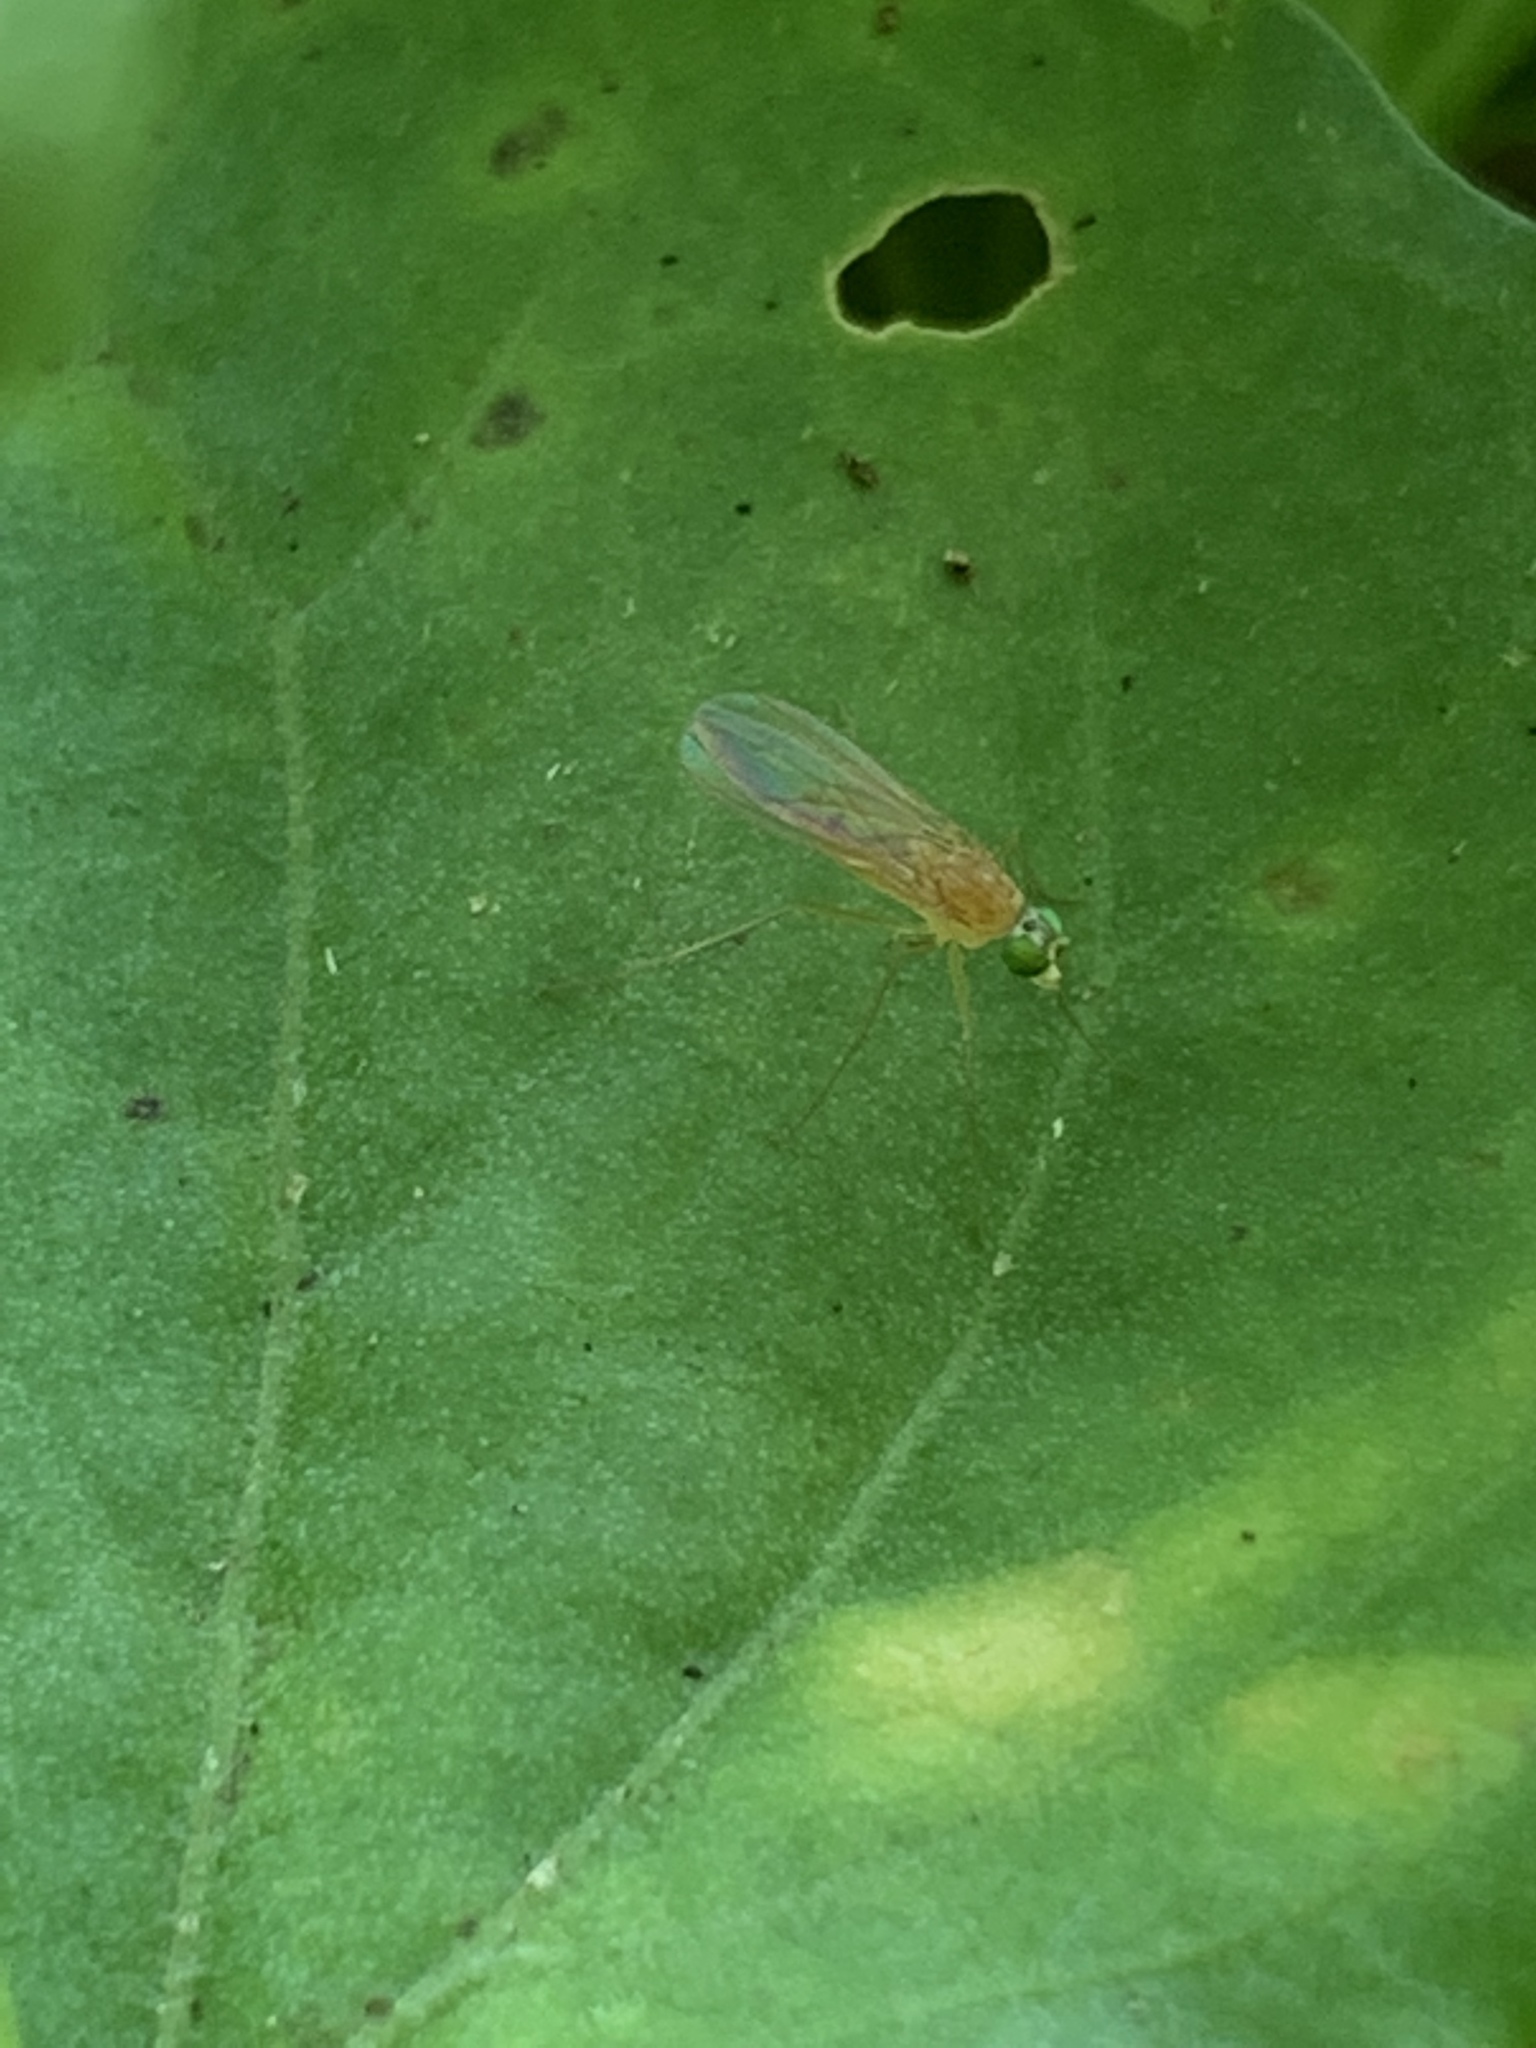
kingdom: Animalia
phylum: Arthropoda
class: Insecta
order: Diptera
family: Dolichopodidae
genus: Xanthochlorus
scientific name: Xanthochlorus helvinus
